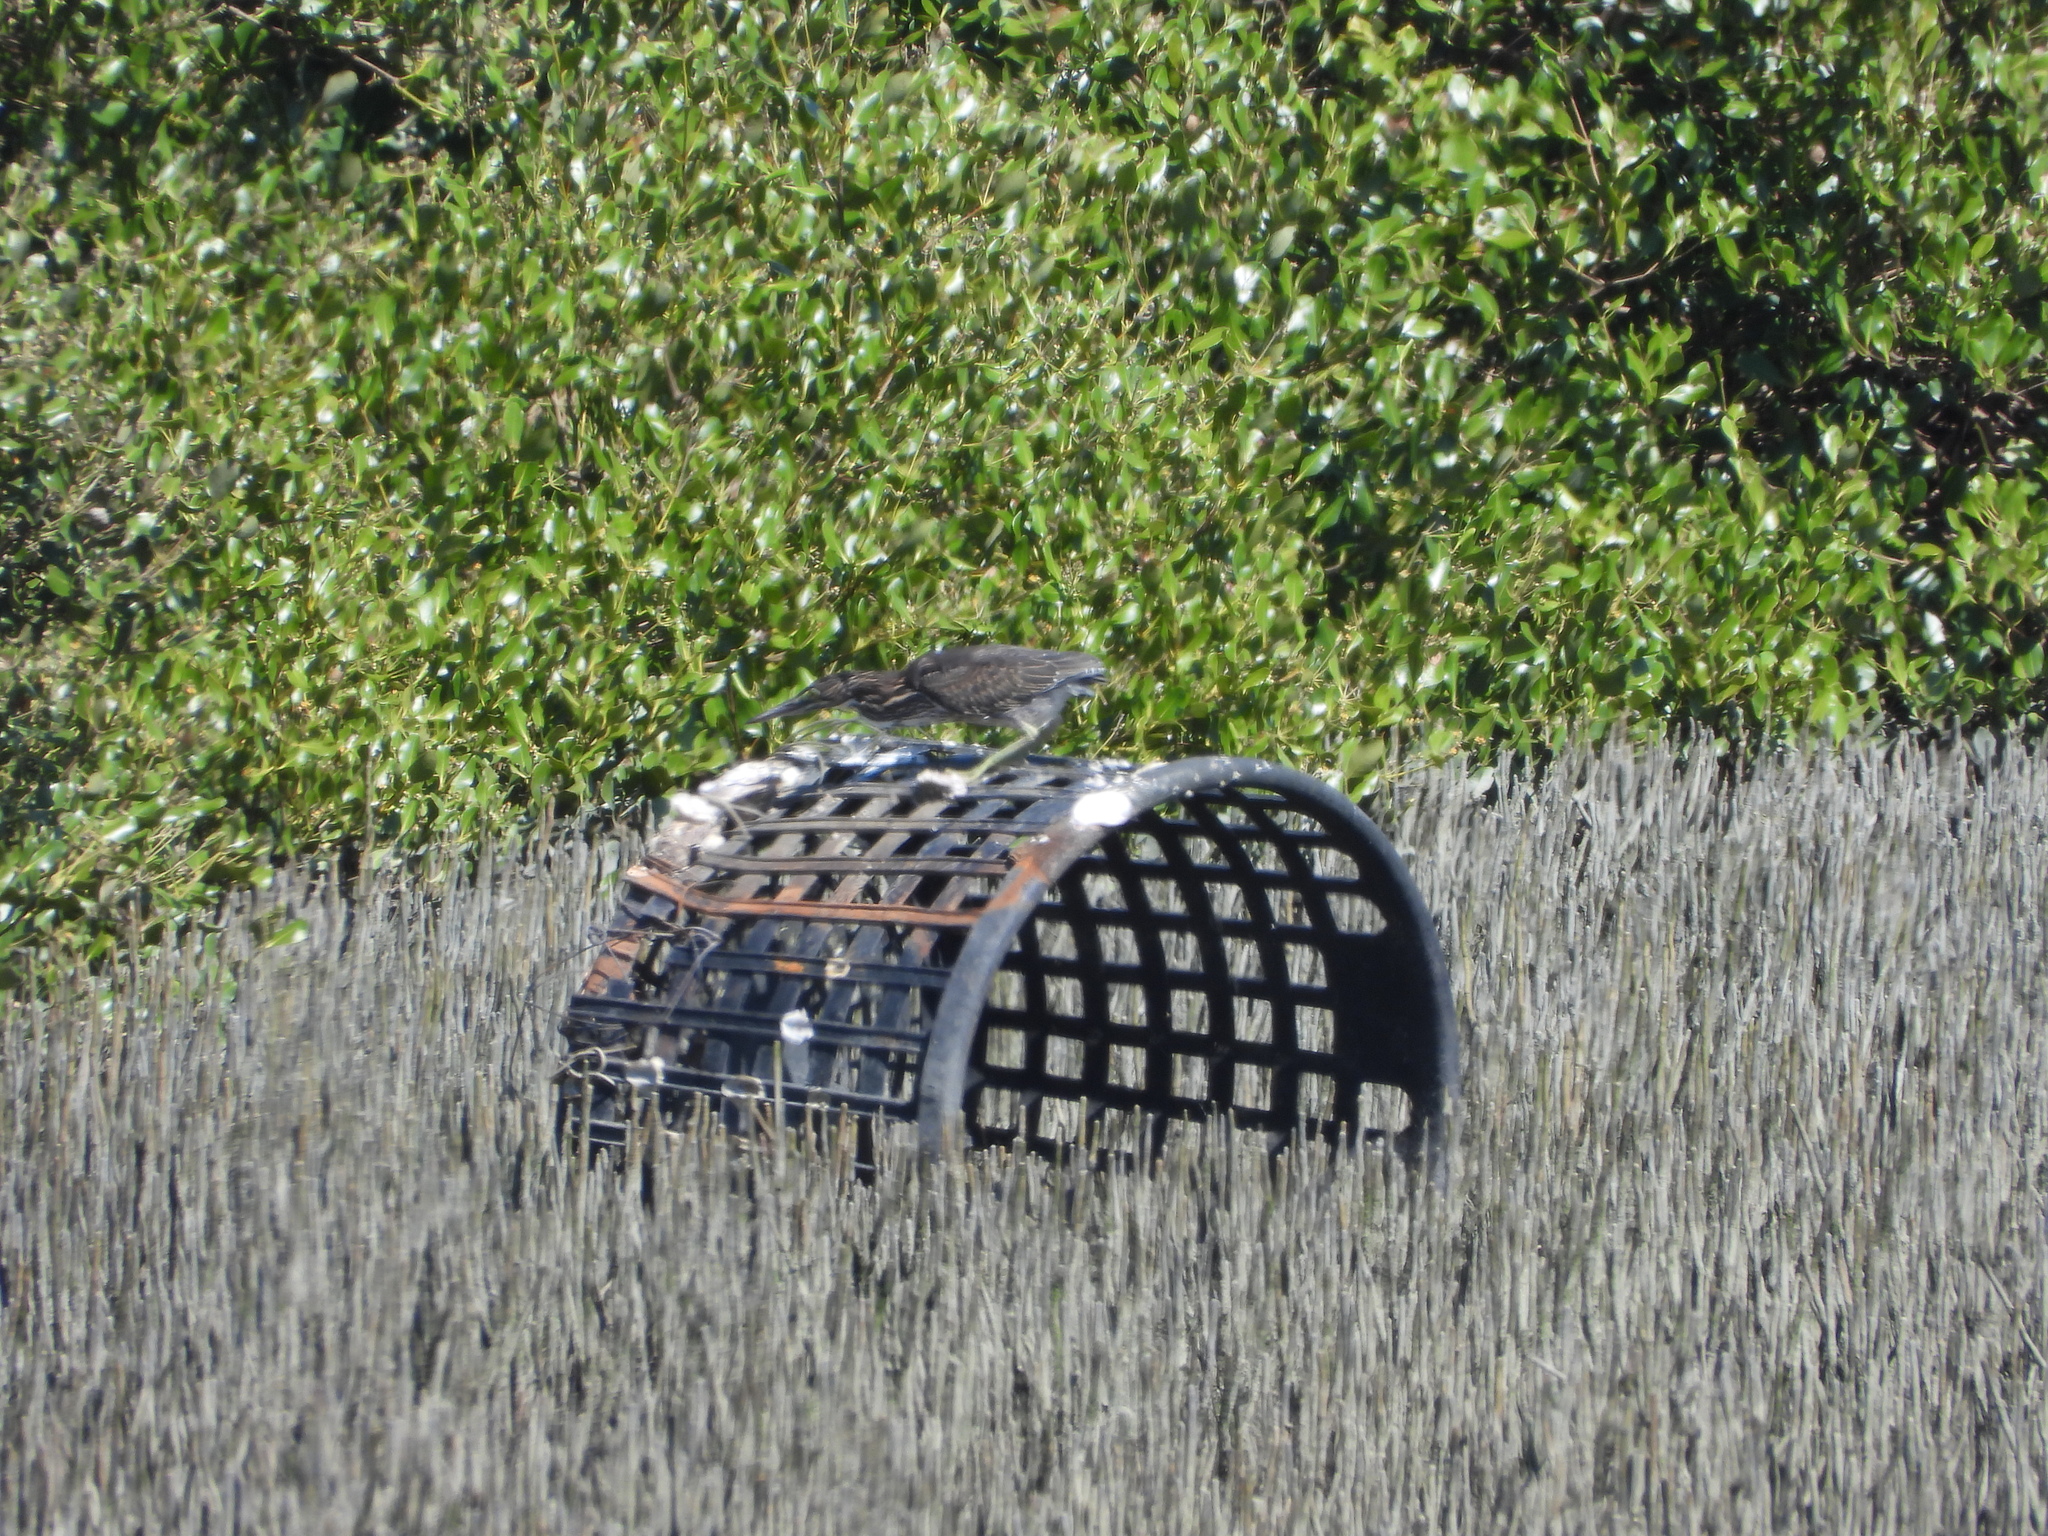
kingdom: Animalia
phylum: Chordata
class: Aves
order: Pelecaniformes
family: Ardeidae
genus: Butorides
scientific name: Butorides striata
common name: Striated heron
